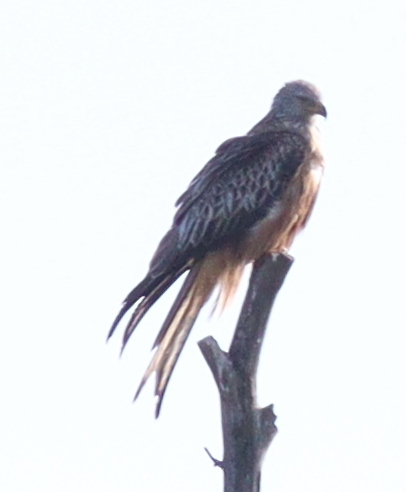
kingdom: Animalia
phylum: Chordata
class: Aves
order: Accipitriformes
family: Accipitridae
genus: Milvus
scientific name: Milvus milvus
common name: Red kite
